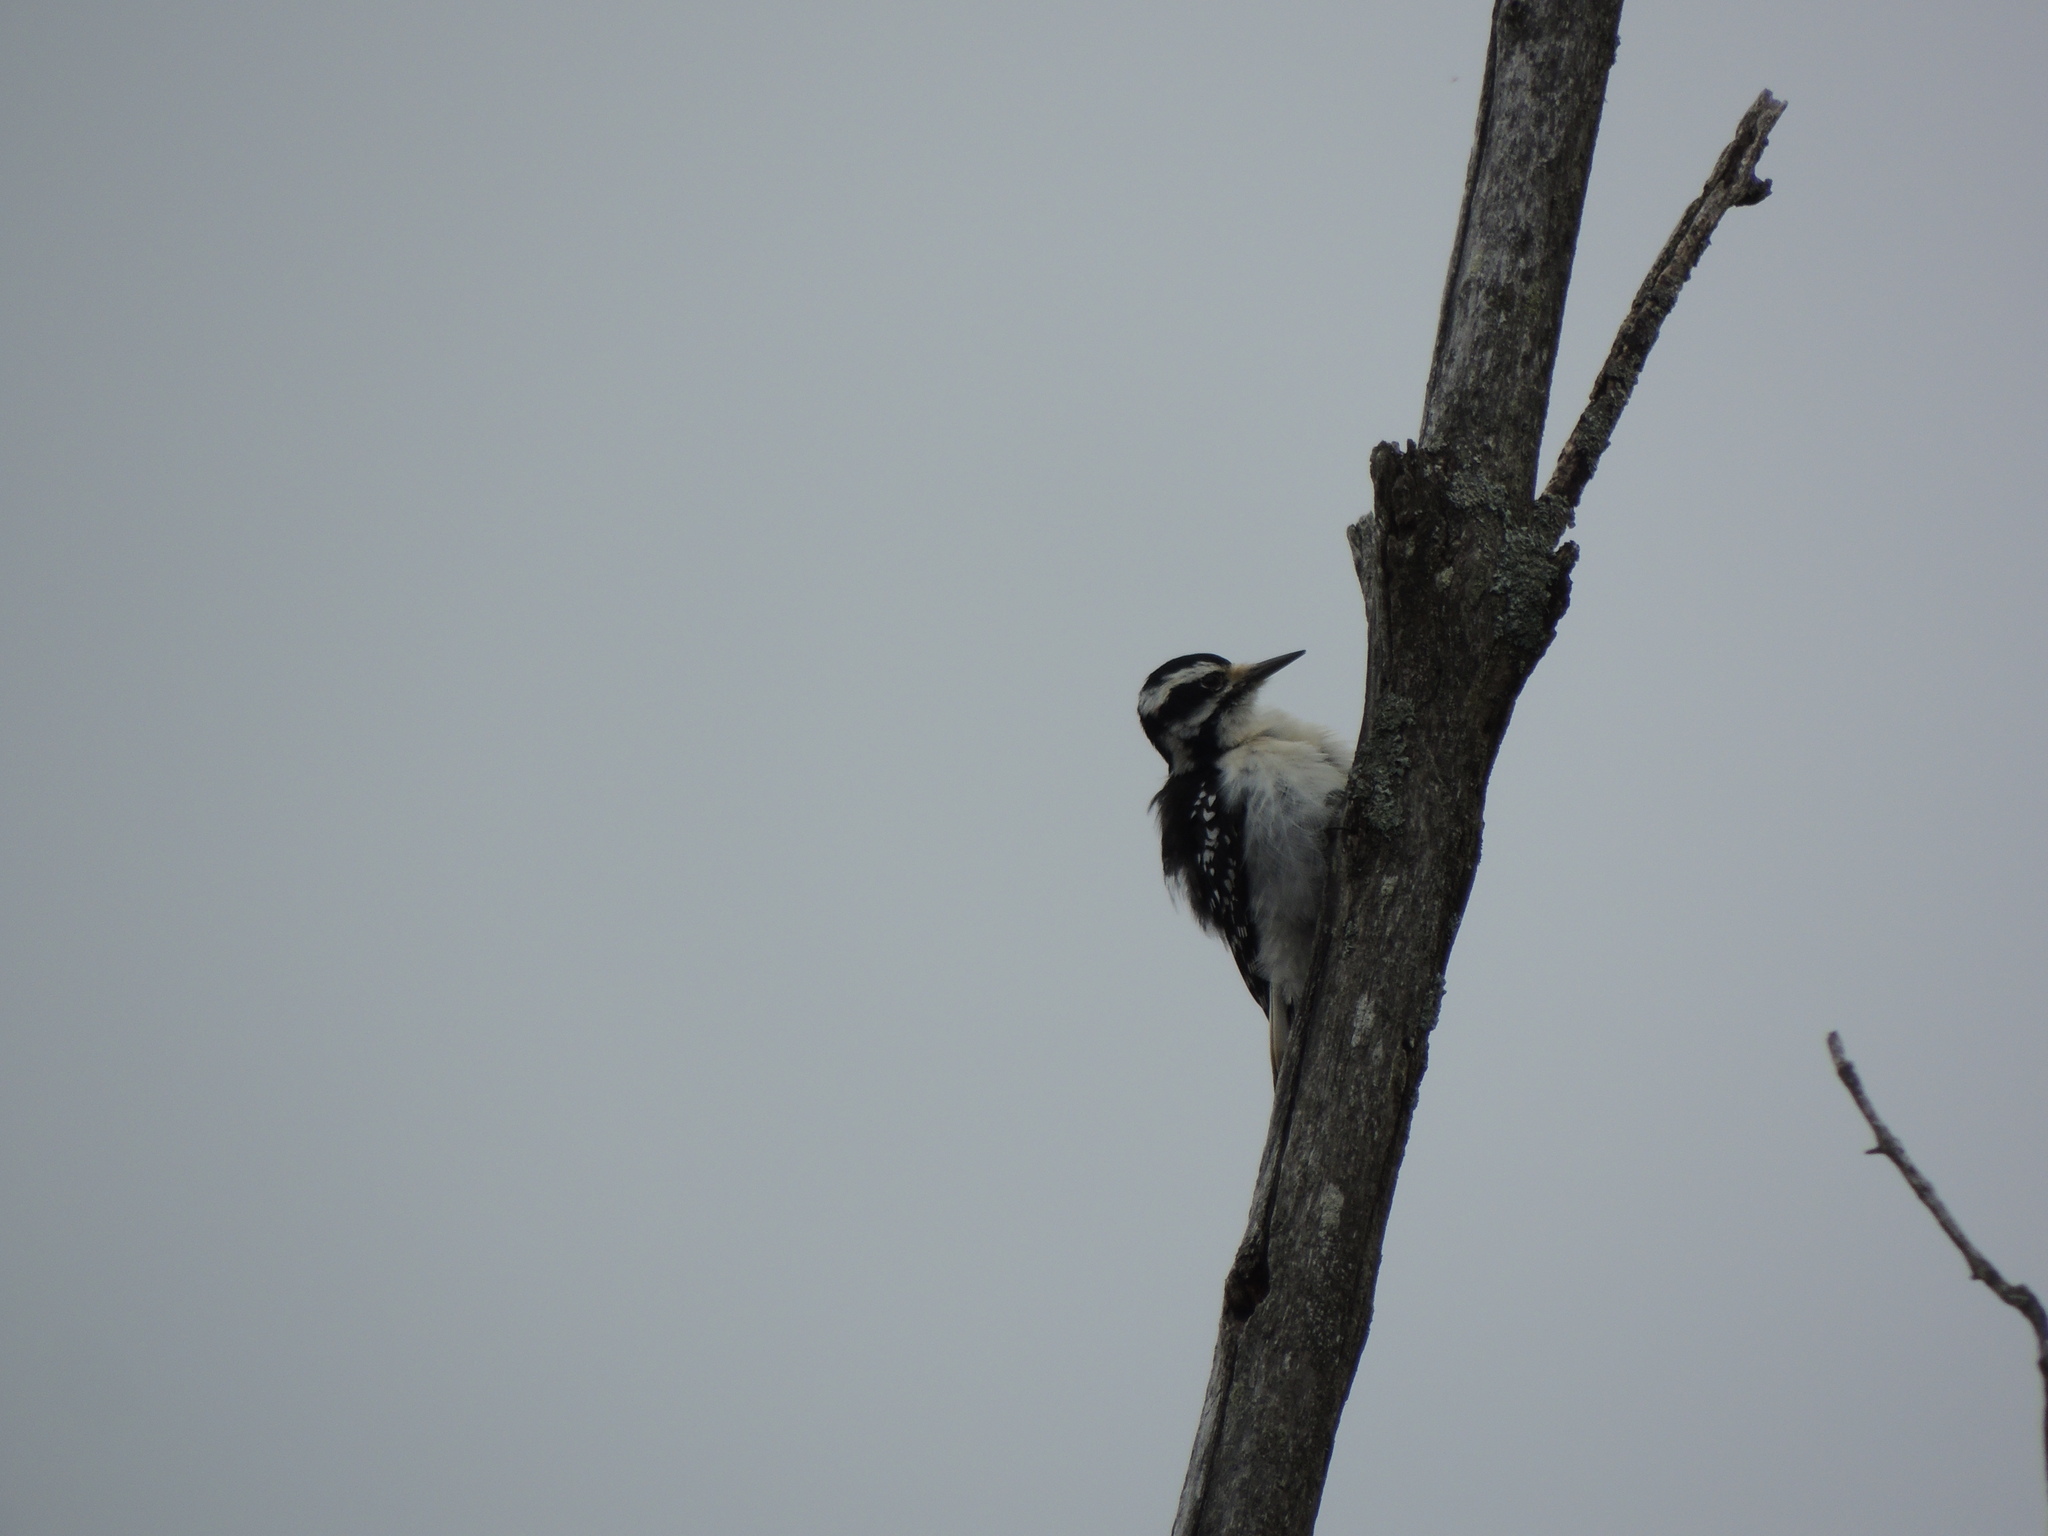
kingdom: Animalia
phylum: Chordata
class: Aves
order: Piciformes
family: Picidae
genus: Leuconotopicus
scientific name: Leuconotopicus villosus
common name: Hairy woodpecker
